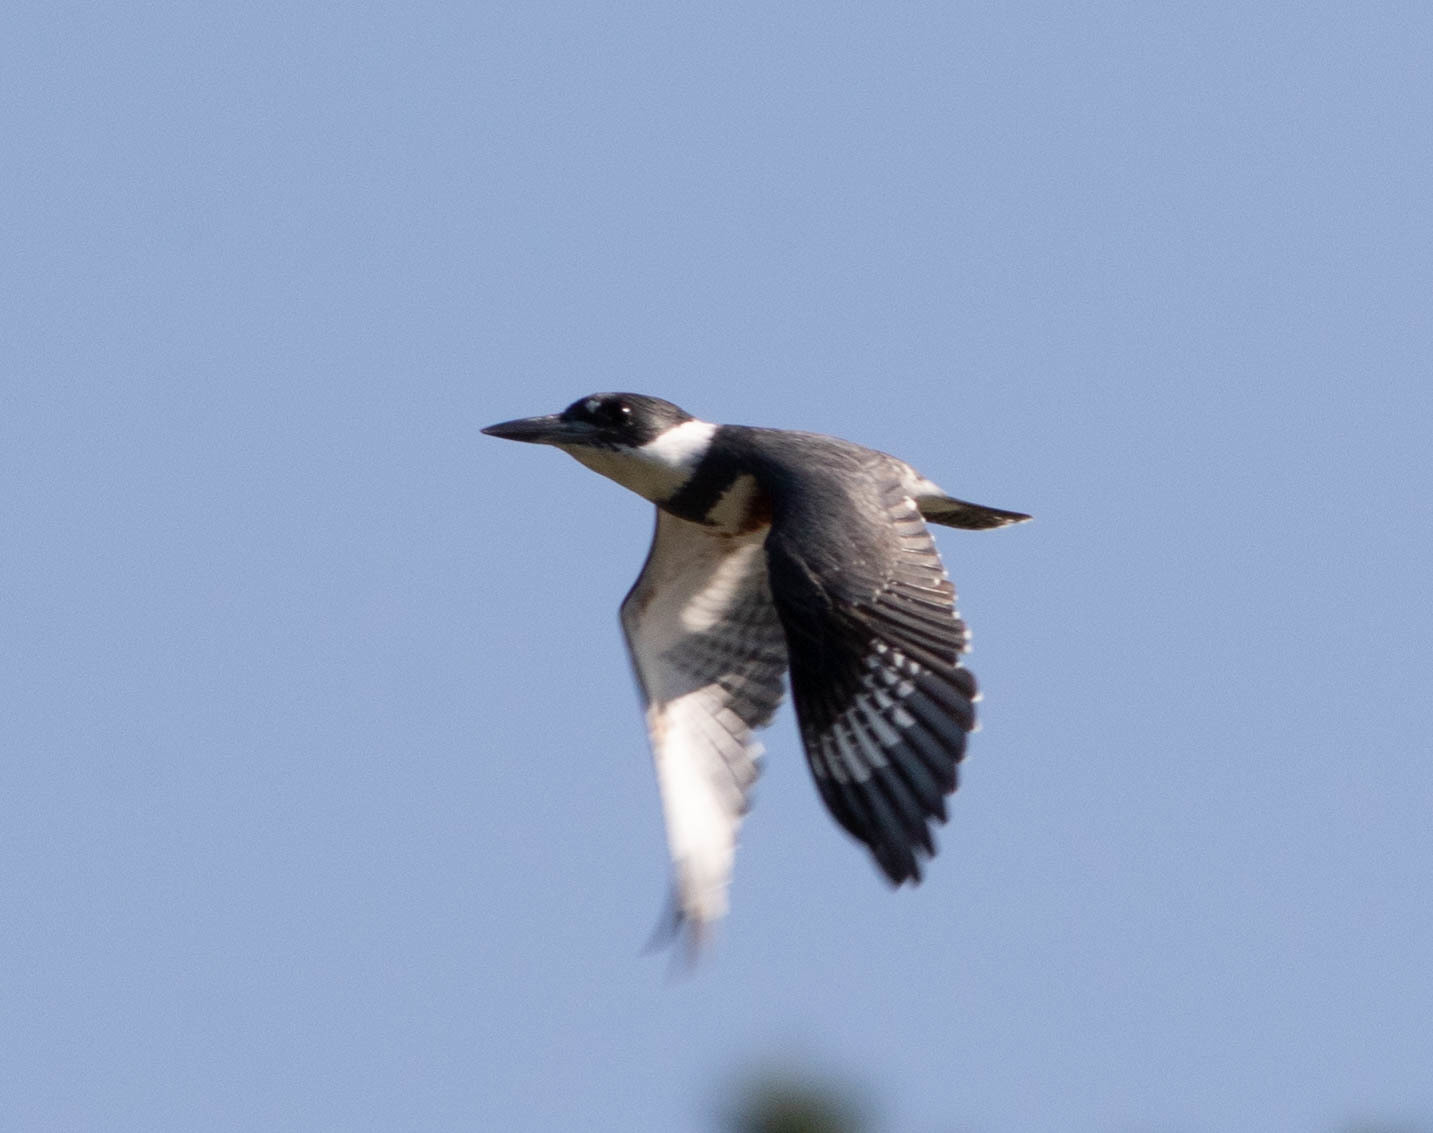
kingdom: Animalia
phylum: Chordata
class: Aves
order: Coraciiformes
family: Alcedinidae
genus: Megaceryle
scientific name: Megaceryle alcyon
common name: Belted kingfisher
